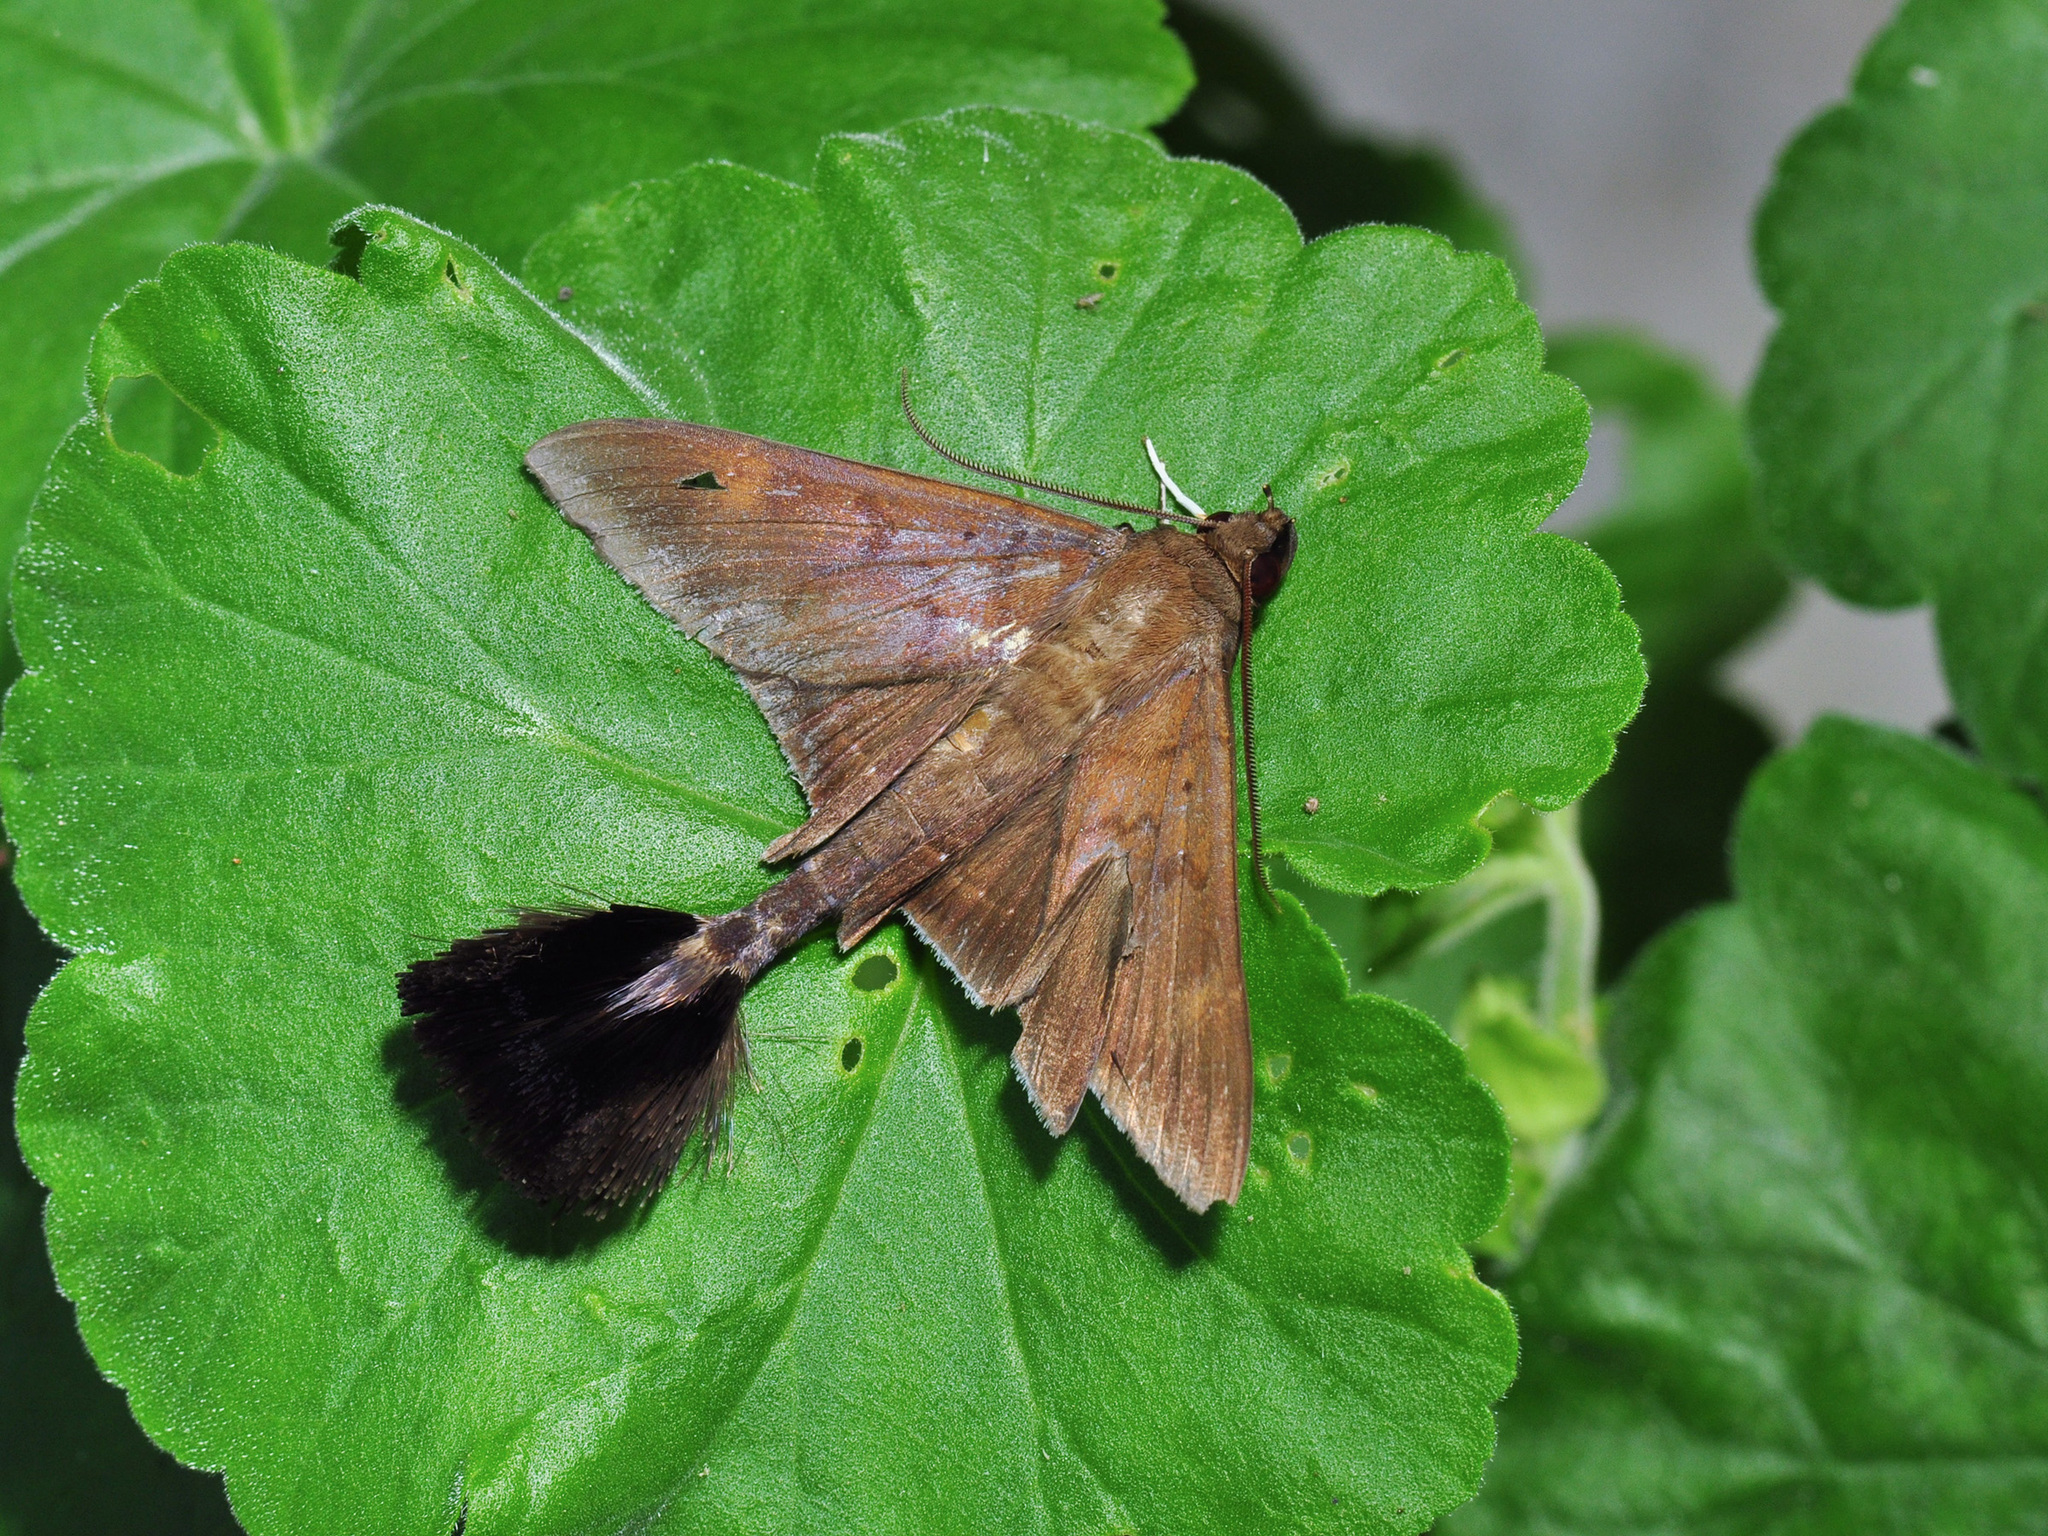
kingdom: Animalia
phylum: Arthropoda
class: Insecta
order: Lepidoptera
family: Erebidae
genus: Platyja
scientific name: Platyja umbrina
